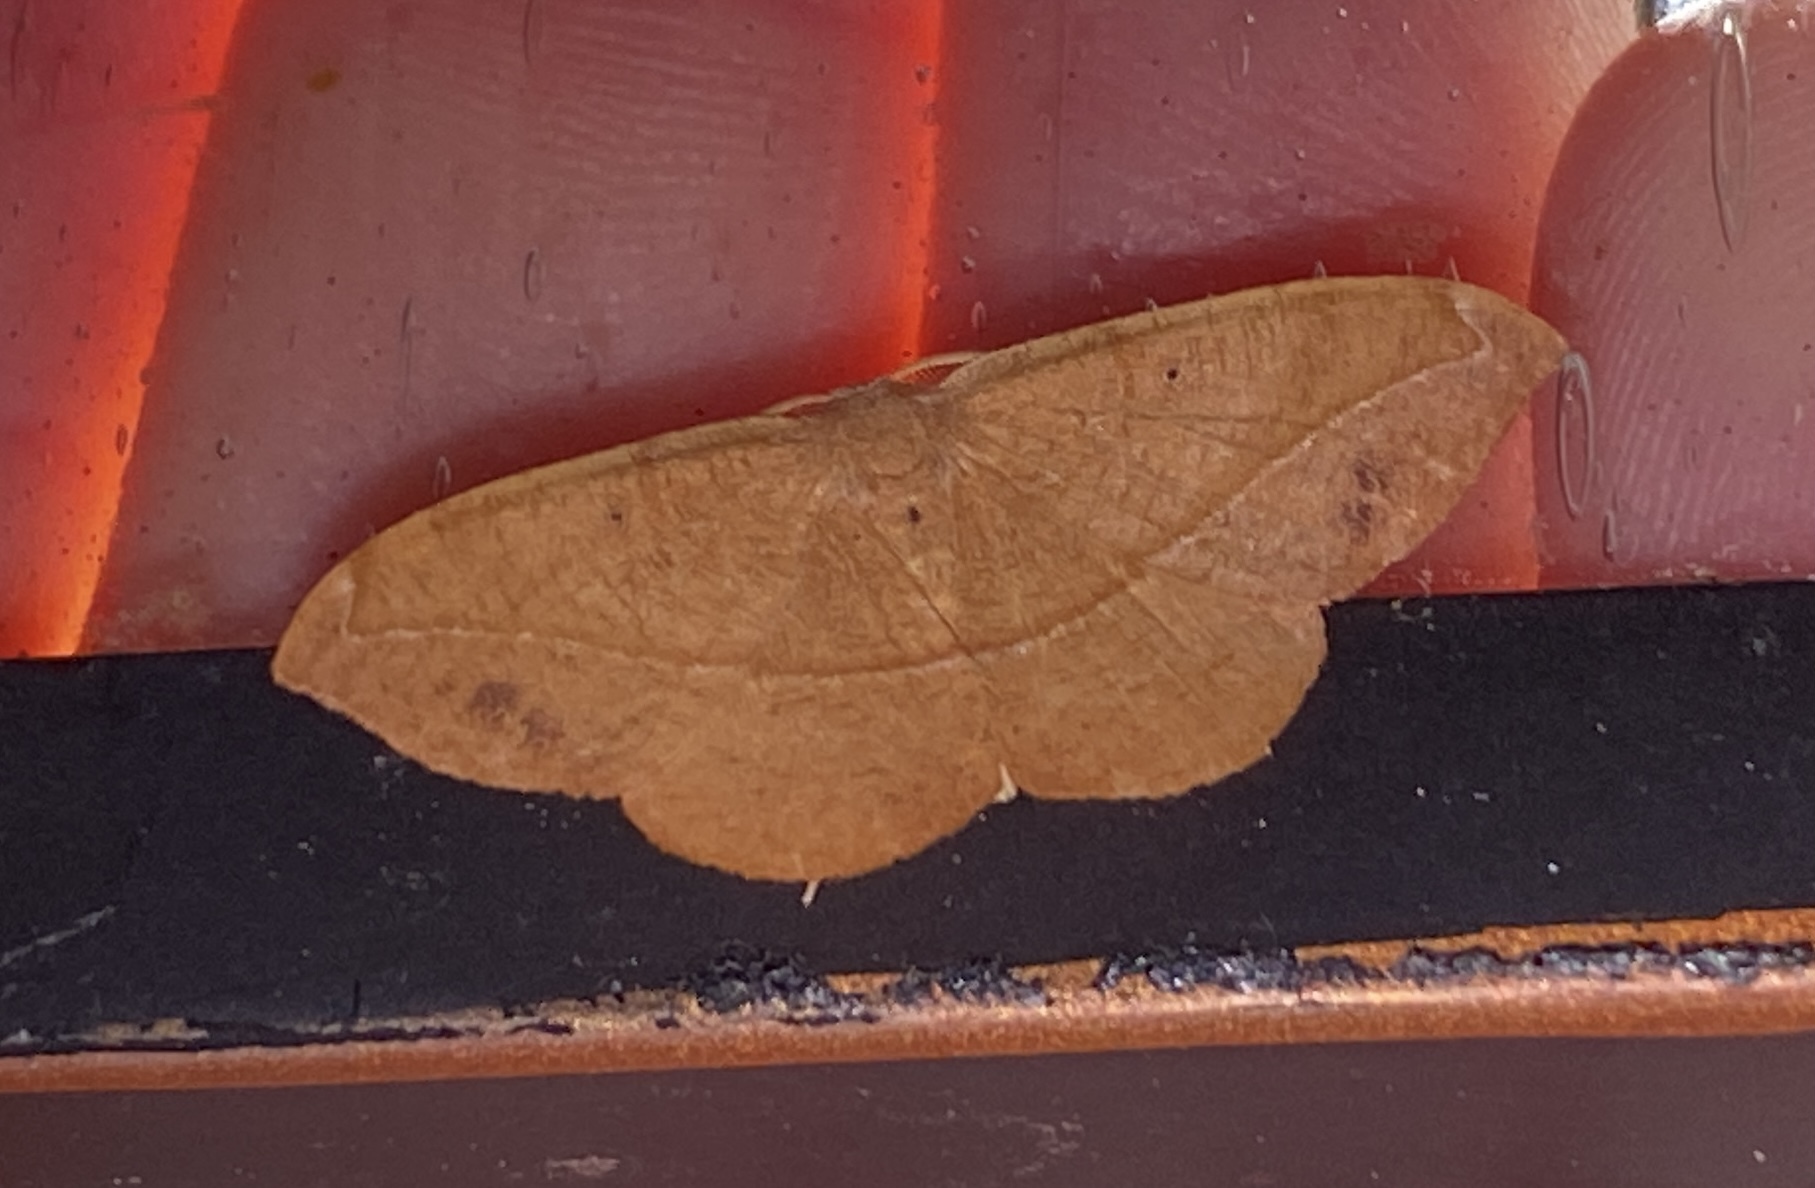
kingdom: Animalia
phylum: Arthropoda
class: Insecta
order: Lepidoptera
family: Geometridae
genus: Patalene
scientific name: Patalene olyzonaria
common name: Juniper geometer moth
